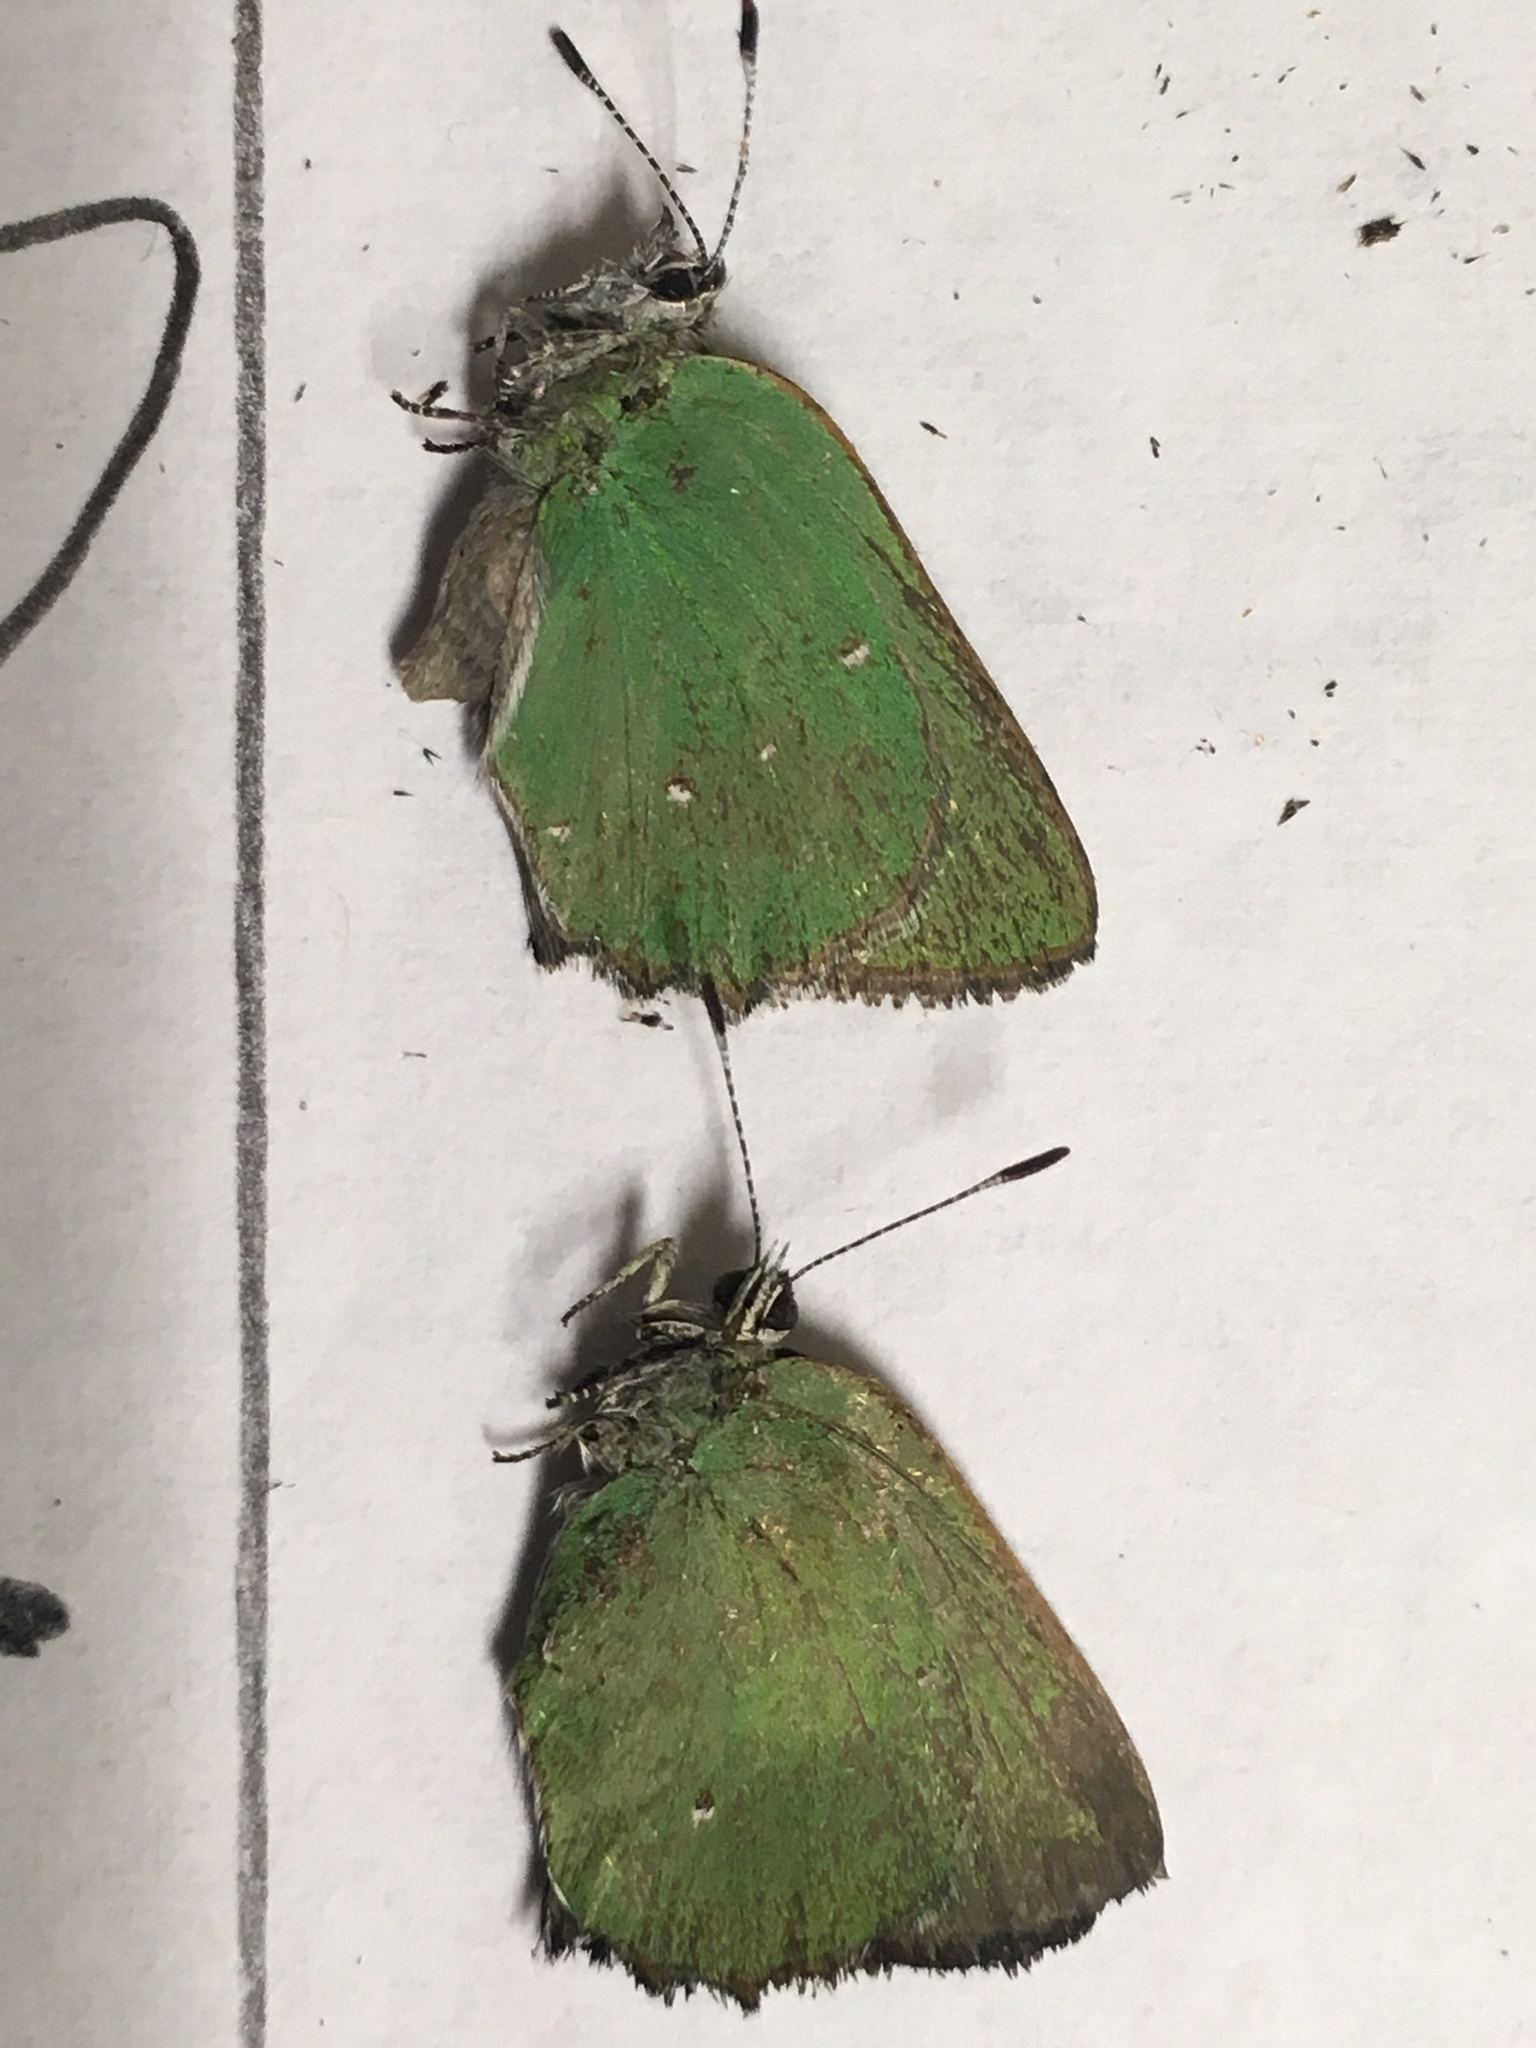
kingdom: Animalia
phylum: Arthropoda
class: Insecta
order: Lepidoptera
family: Lycaenidae
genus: Callophrys
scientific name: Callophrys dumetorum
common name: Bramble hairstreak
